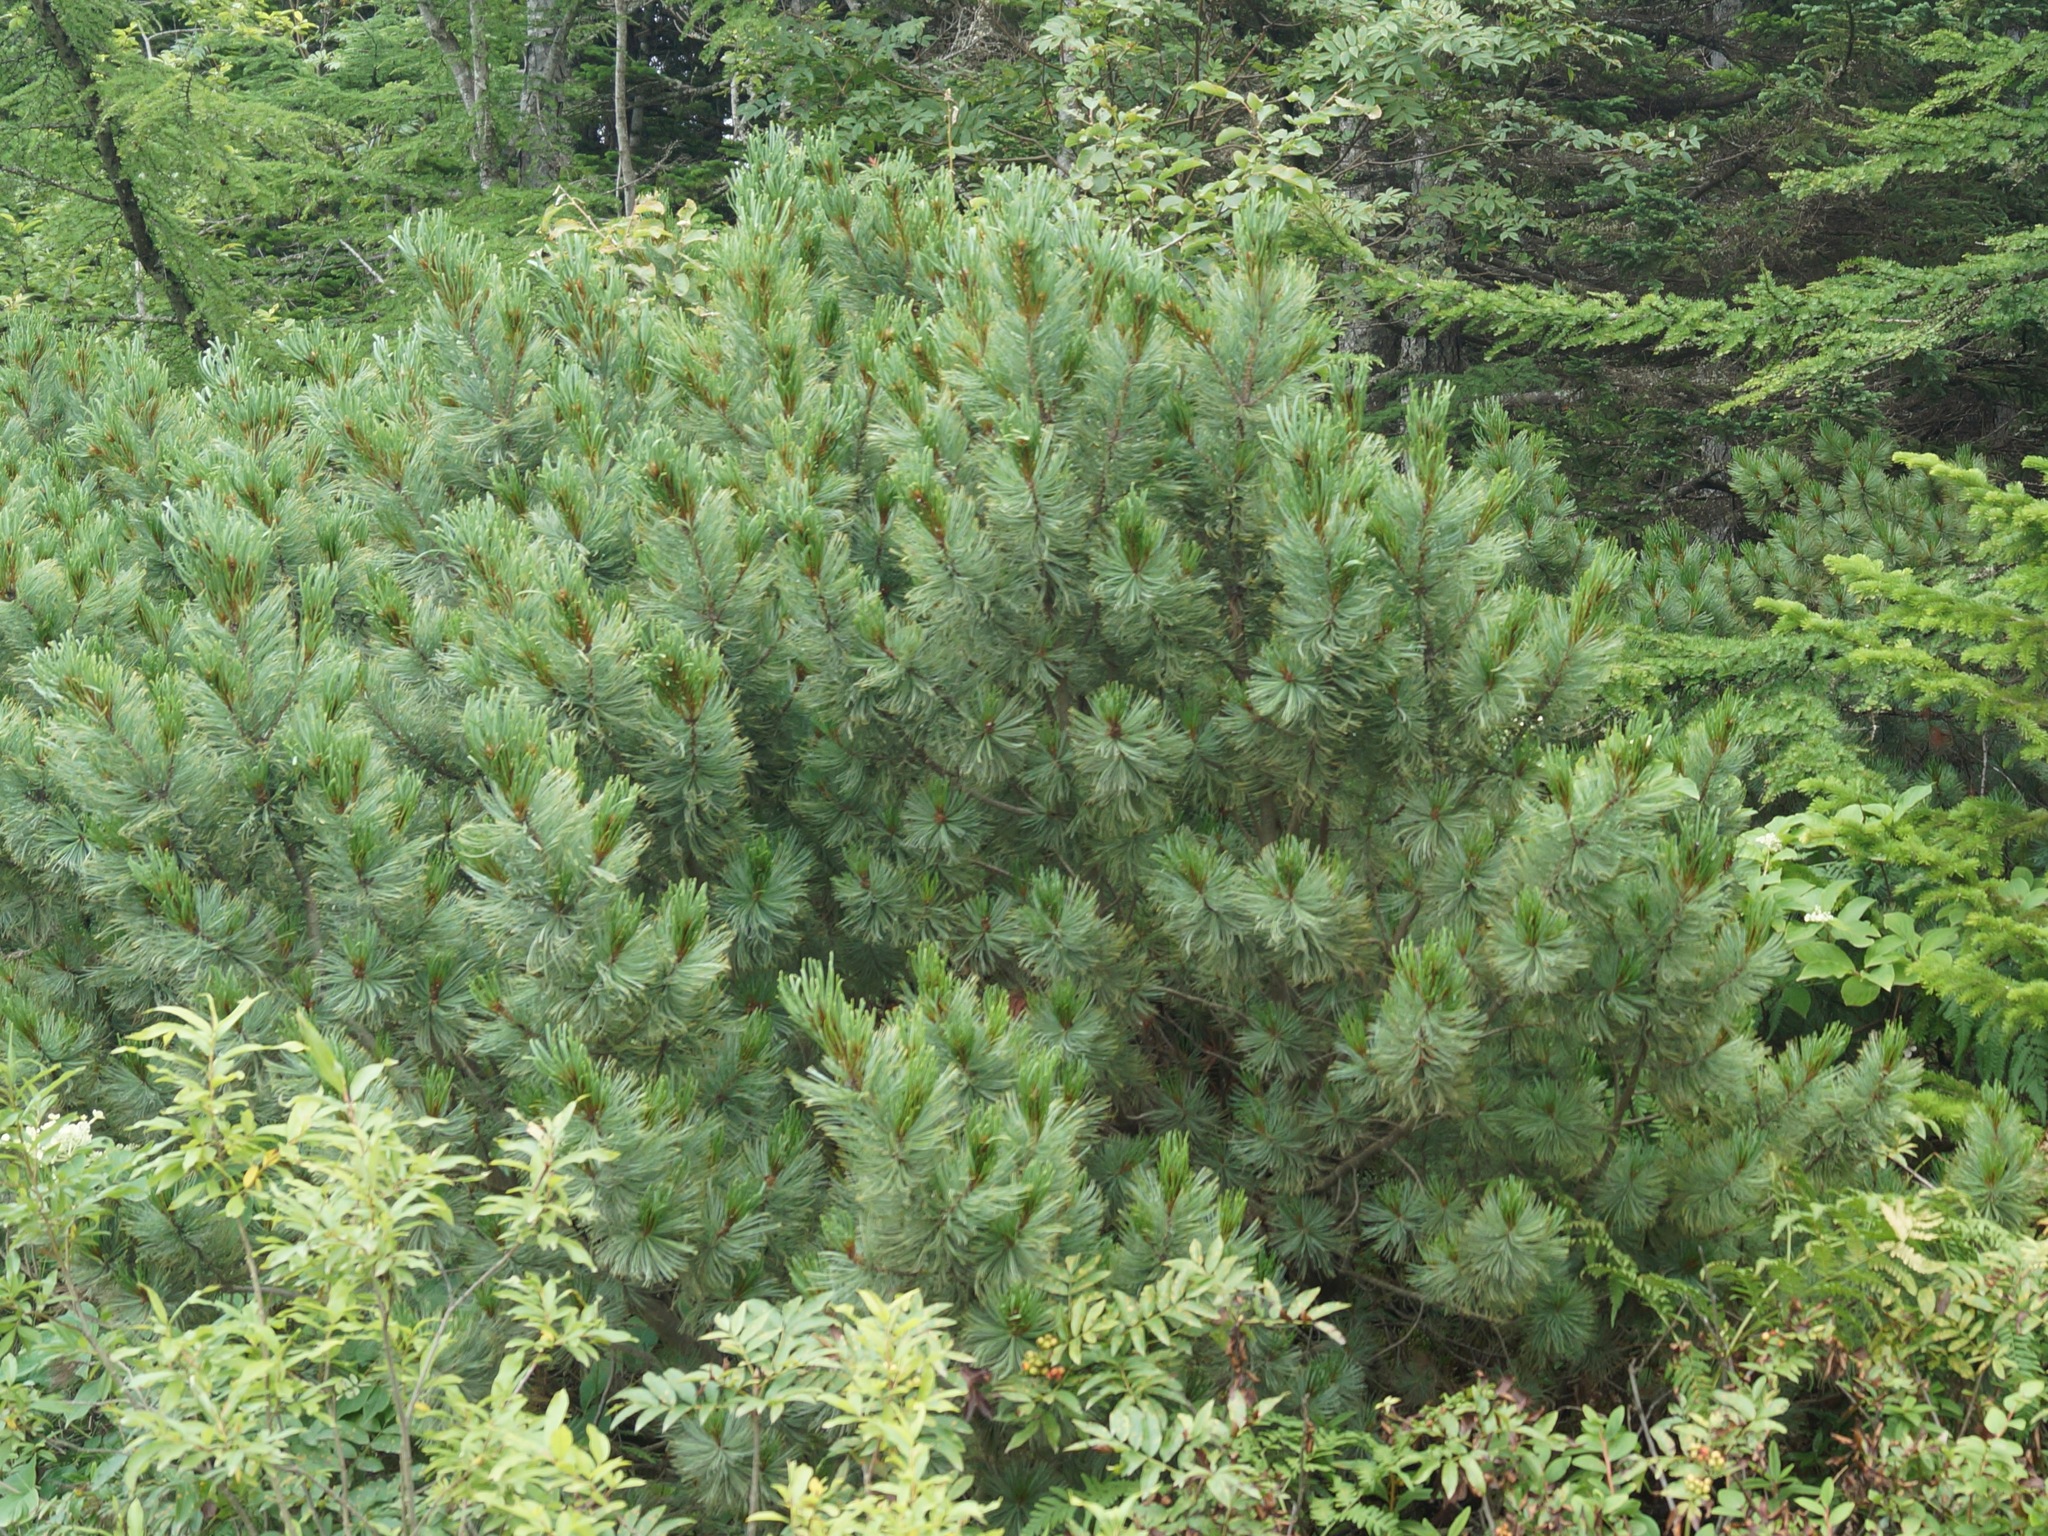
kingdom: Plantae
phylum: Tracheophyta
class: Pinopsida
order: Pinales
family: Pinaceae
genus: Pinus
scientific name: Pinus pumila
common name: Dwarf siberian pine
